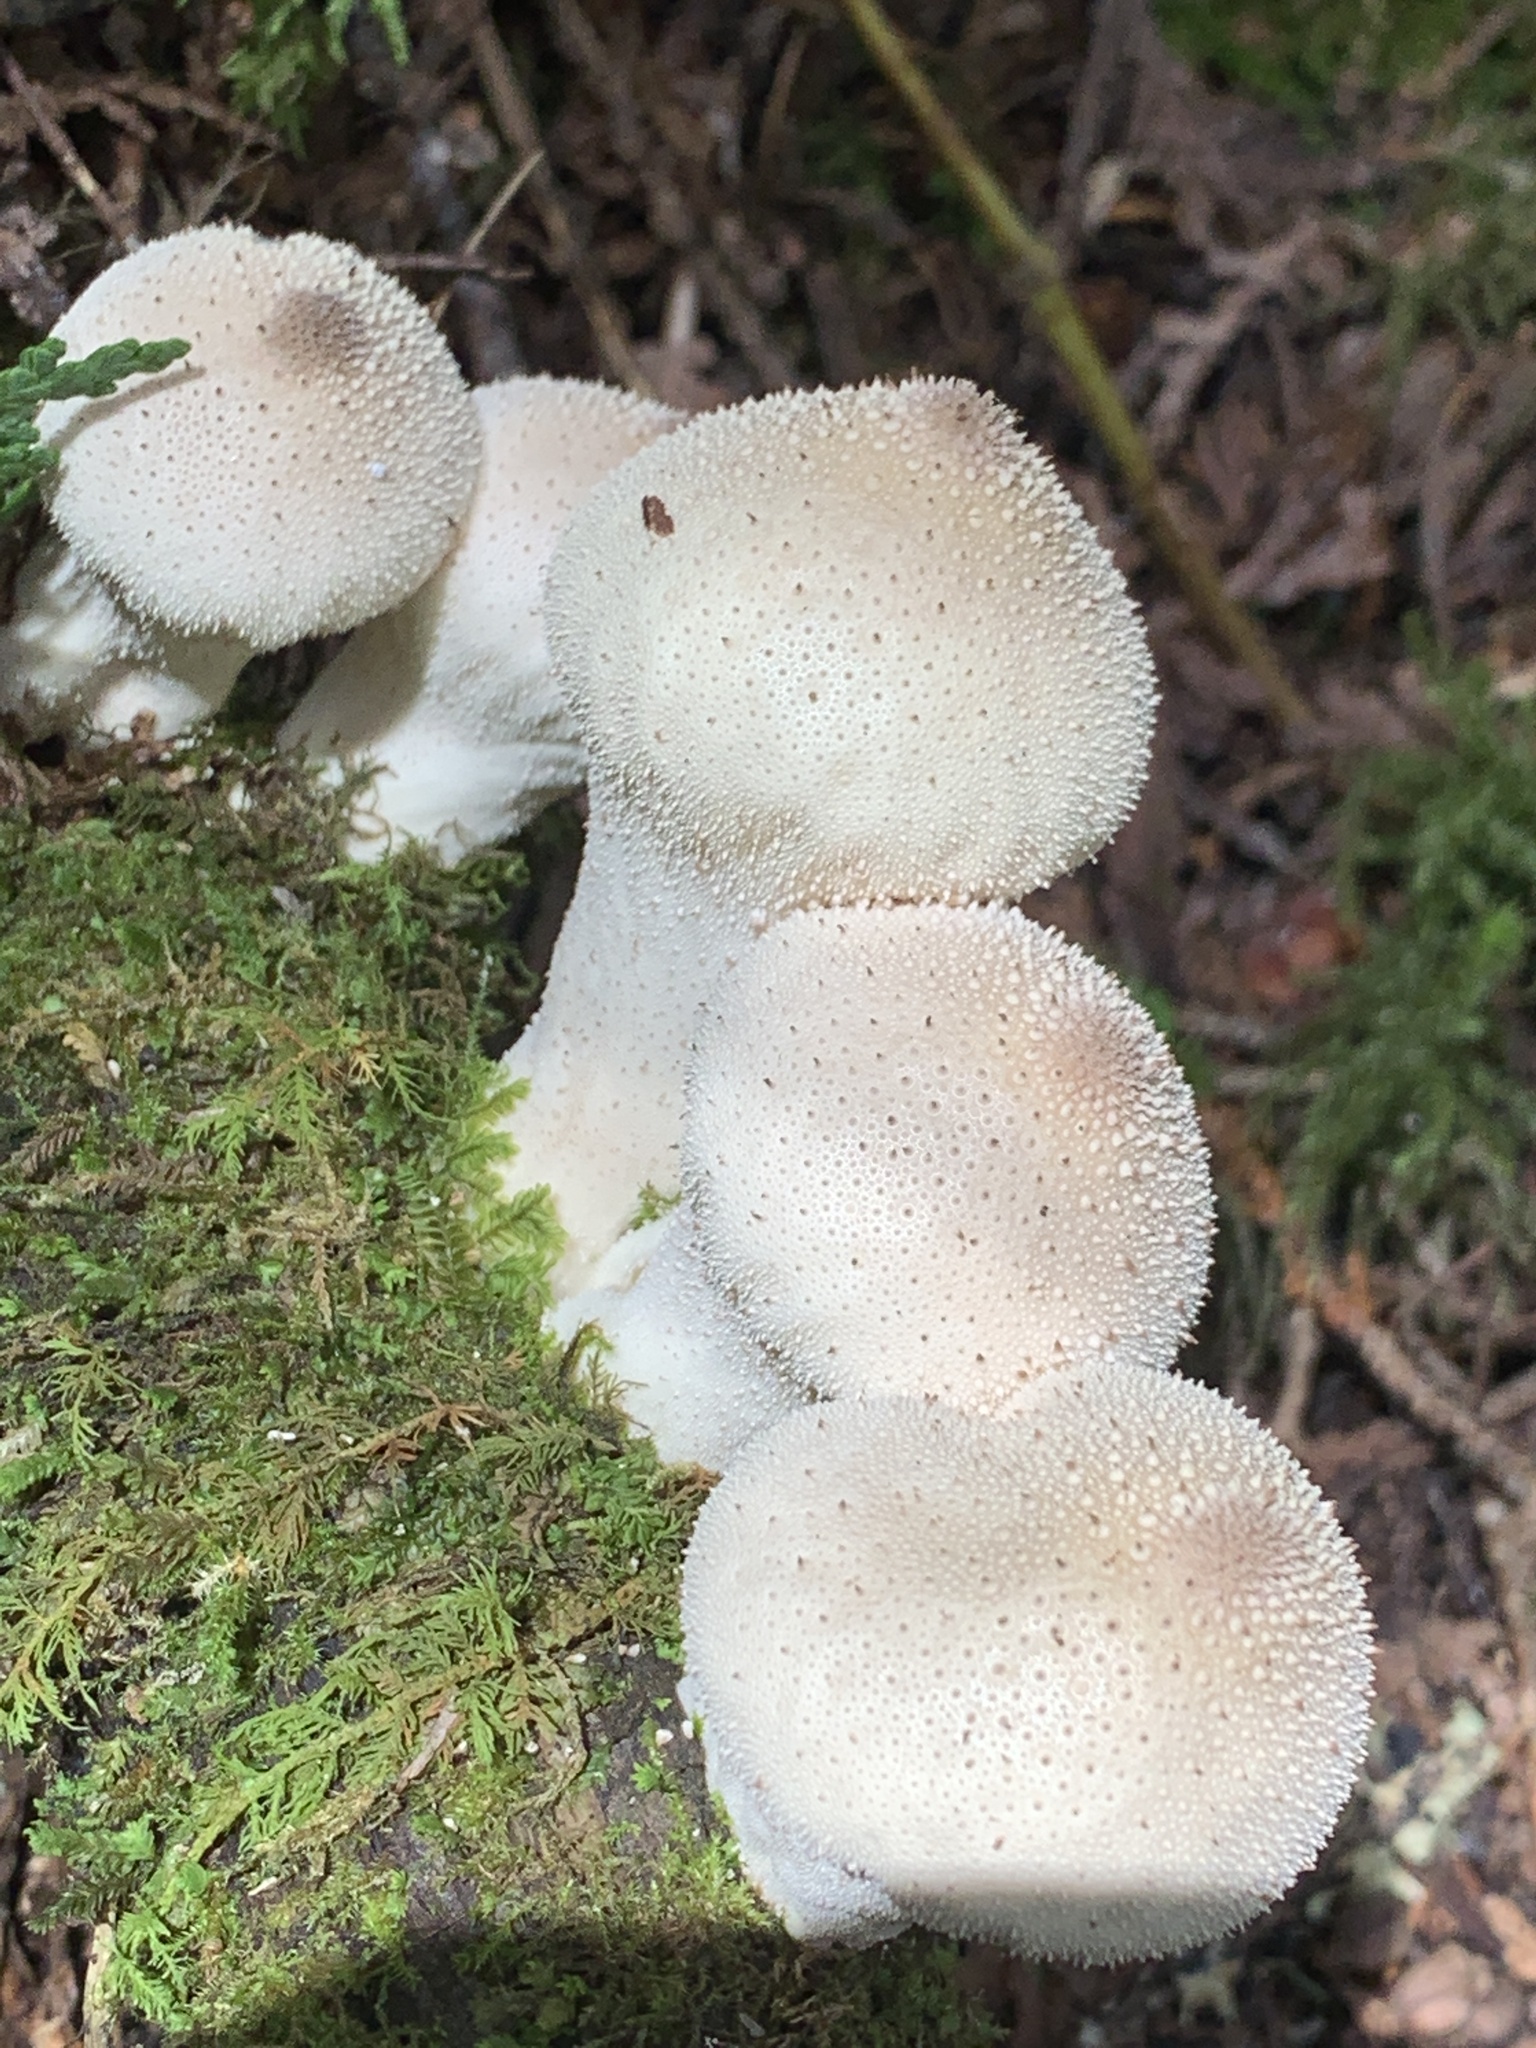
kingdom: Fungi
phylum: Basidiomycota
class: Agaricomycetes
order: Agaricales
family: Lycoperdaceae
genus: Lycoperdon
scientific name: Lycoperdon perlatum
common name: Common puffball
